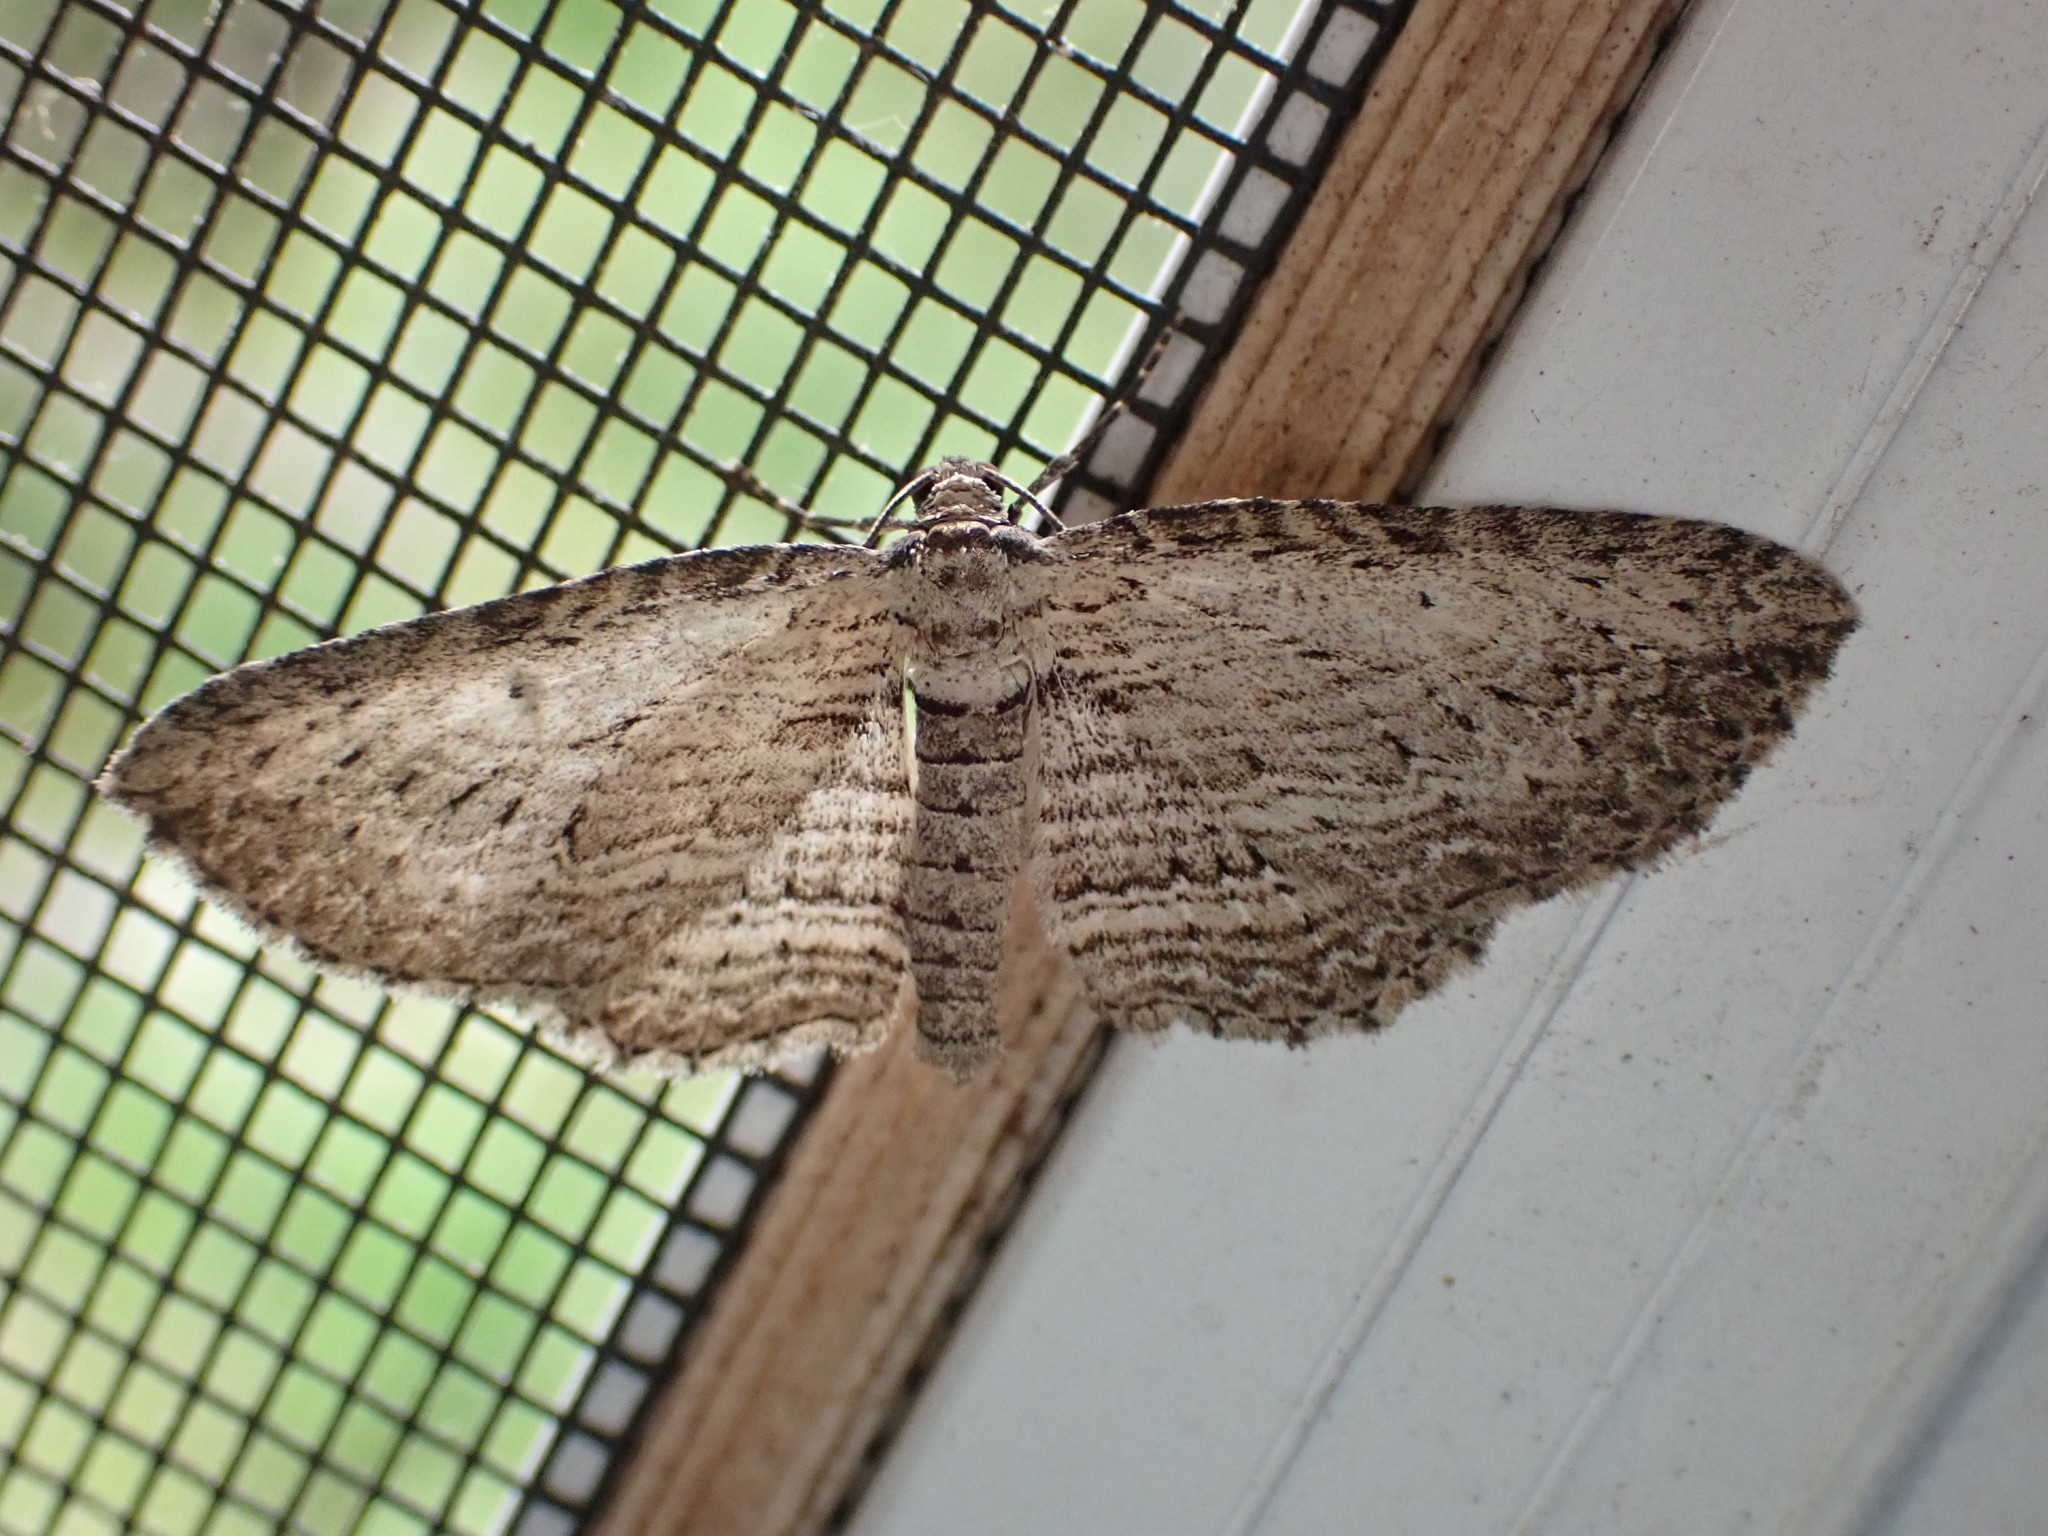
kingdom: Animalia
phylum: Arthropoda
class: Insecta
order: Lepidoptera
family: Geometridae
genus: Horisme
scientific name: Horisme intestinata
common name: Brown bark carpet
